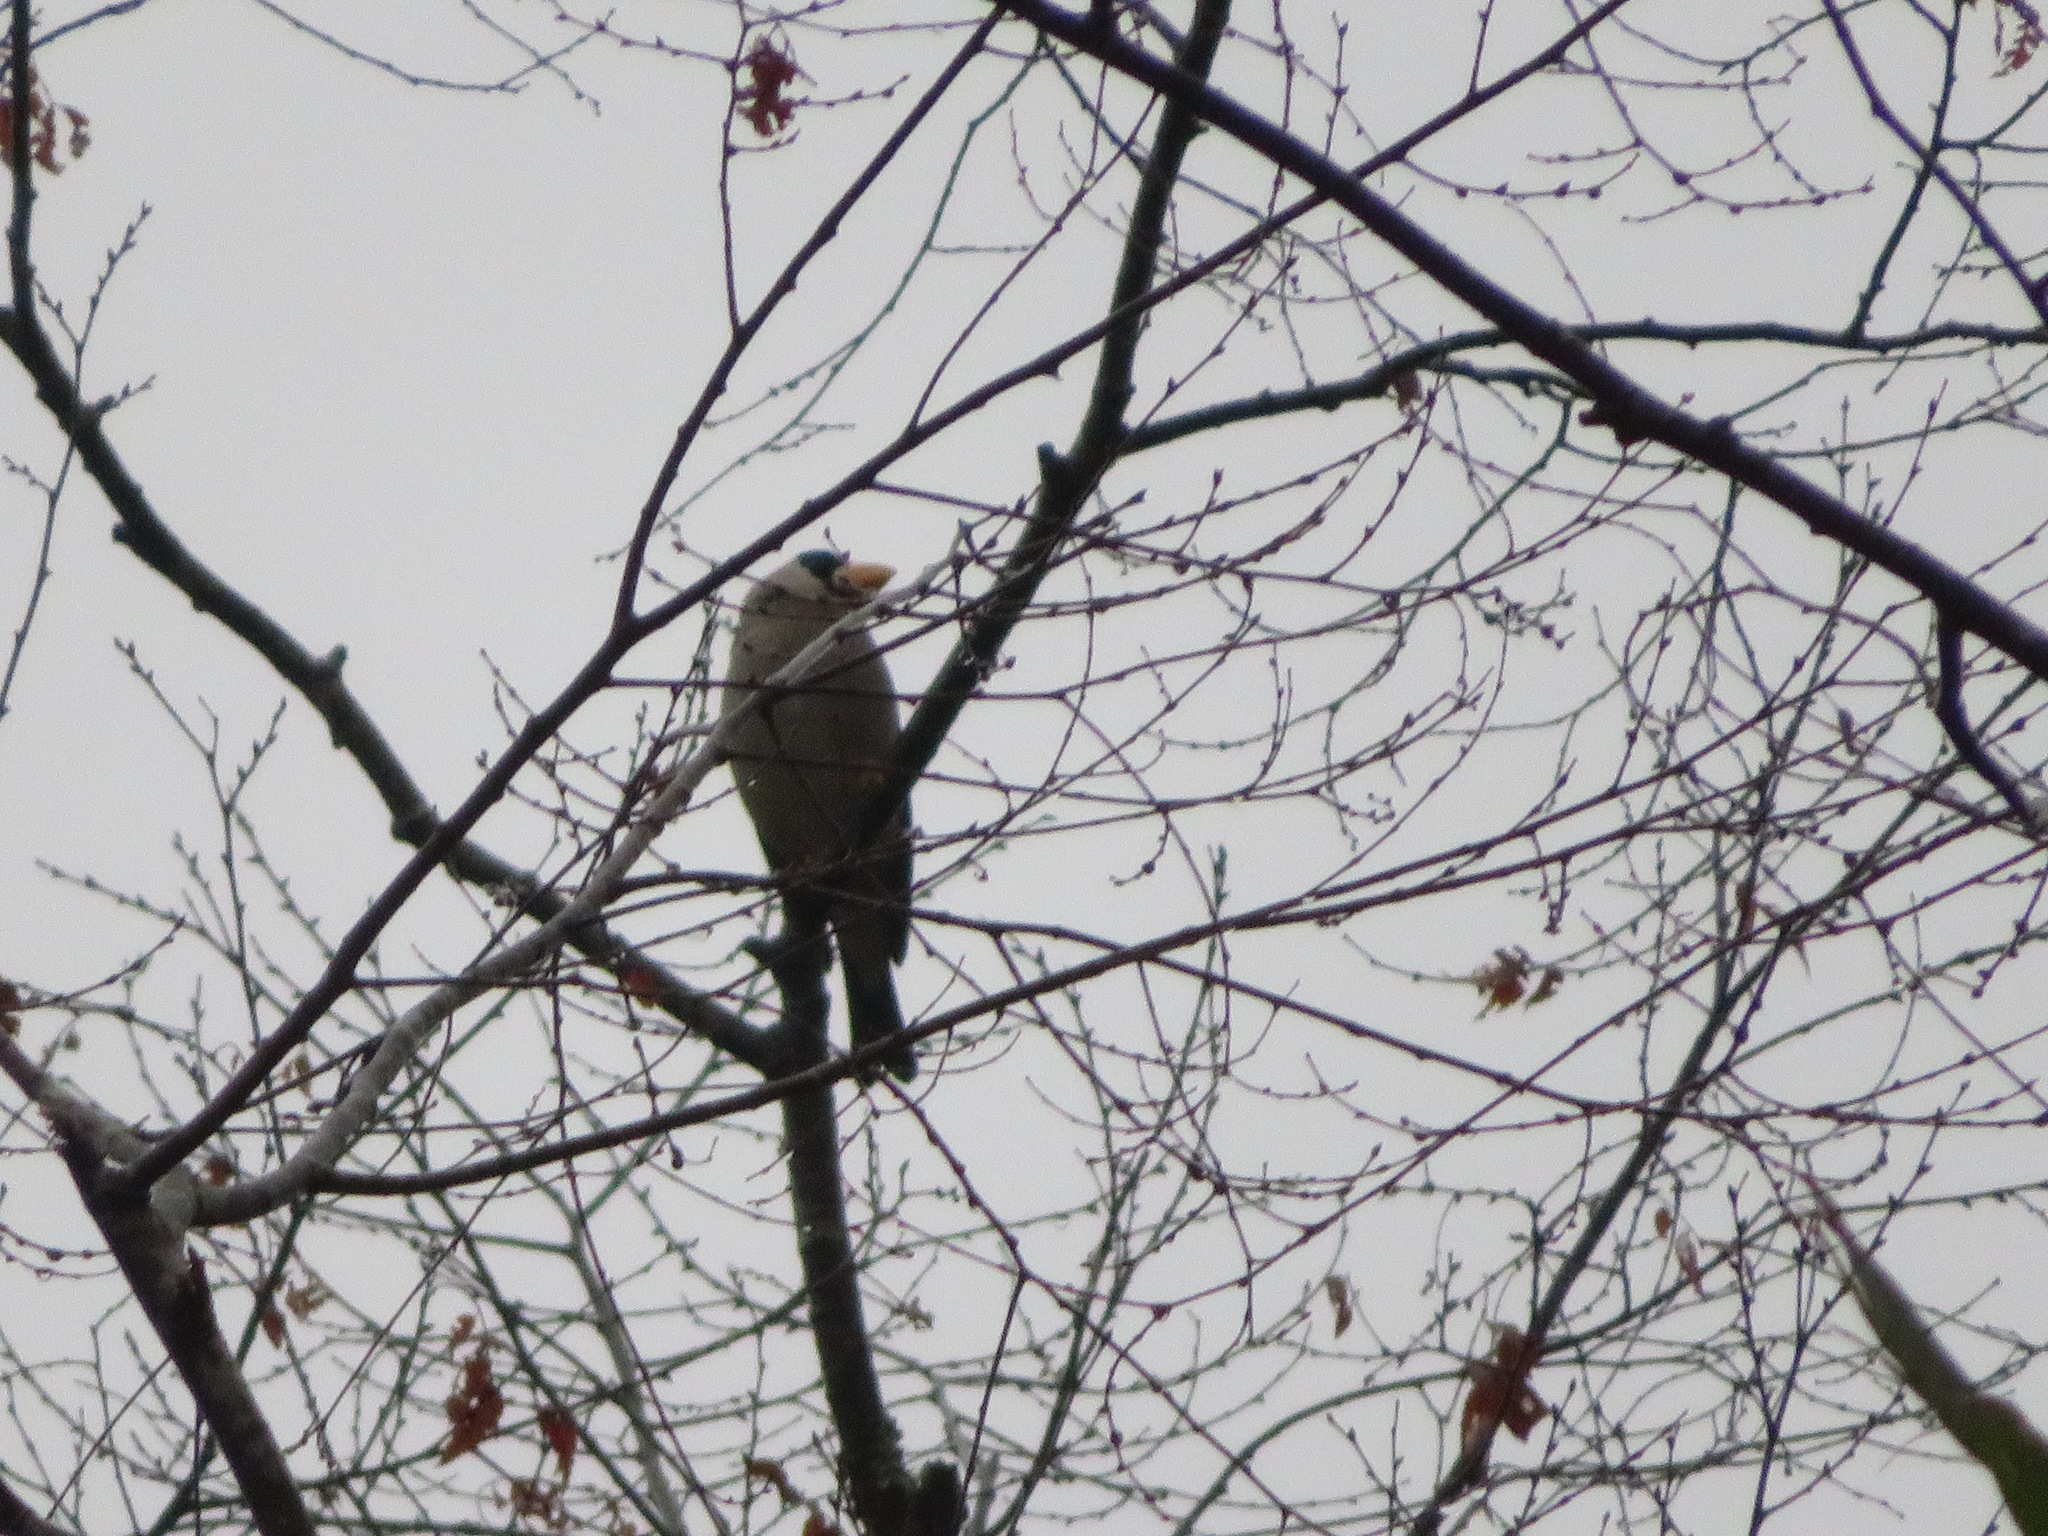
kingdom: Animalia
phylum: Chordata
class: Aves
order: Passeriformes
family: Fringillidae
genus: Eophona
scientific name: Eophona personata
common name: Japanese grosbeak
